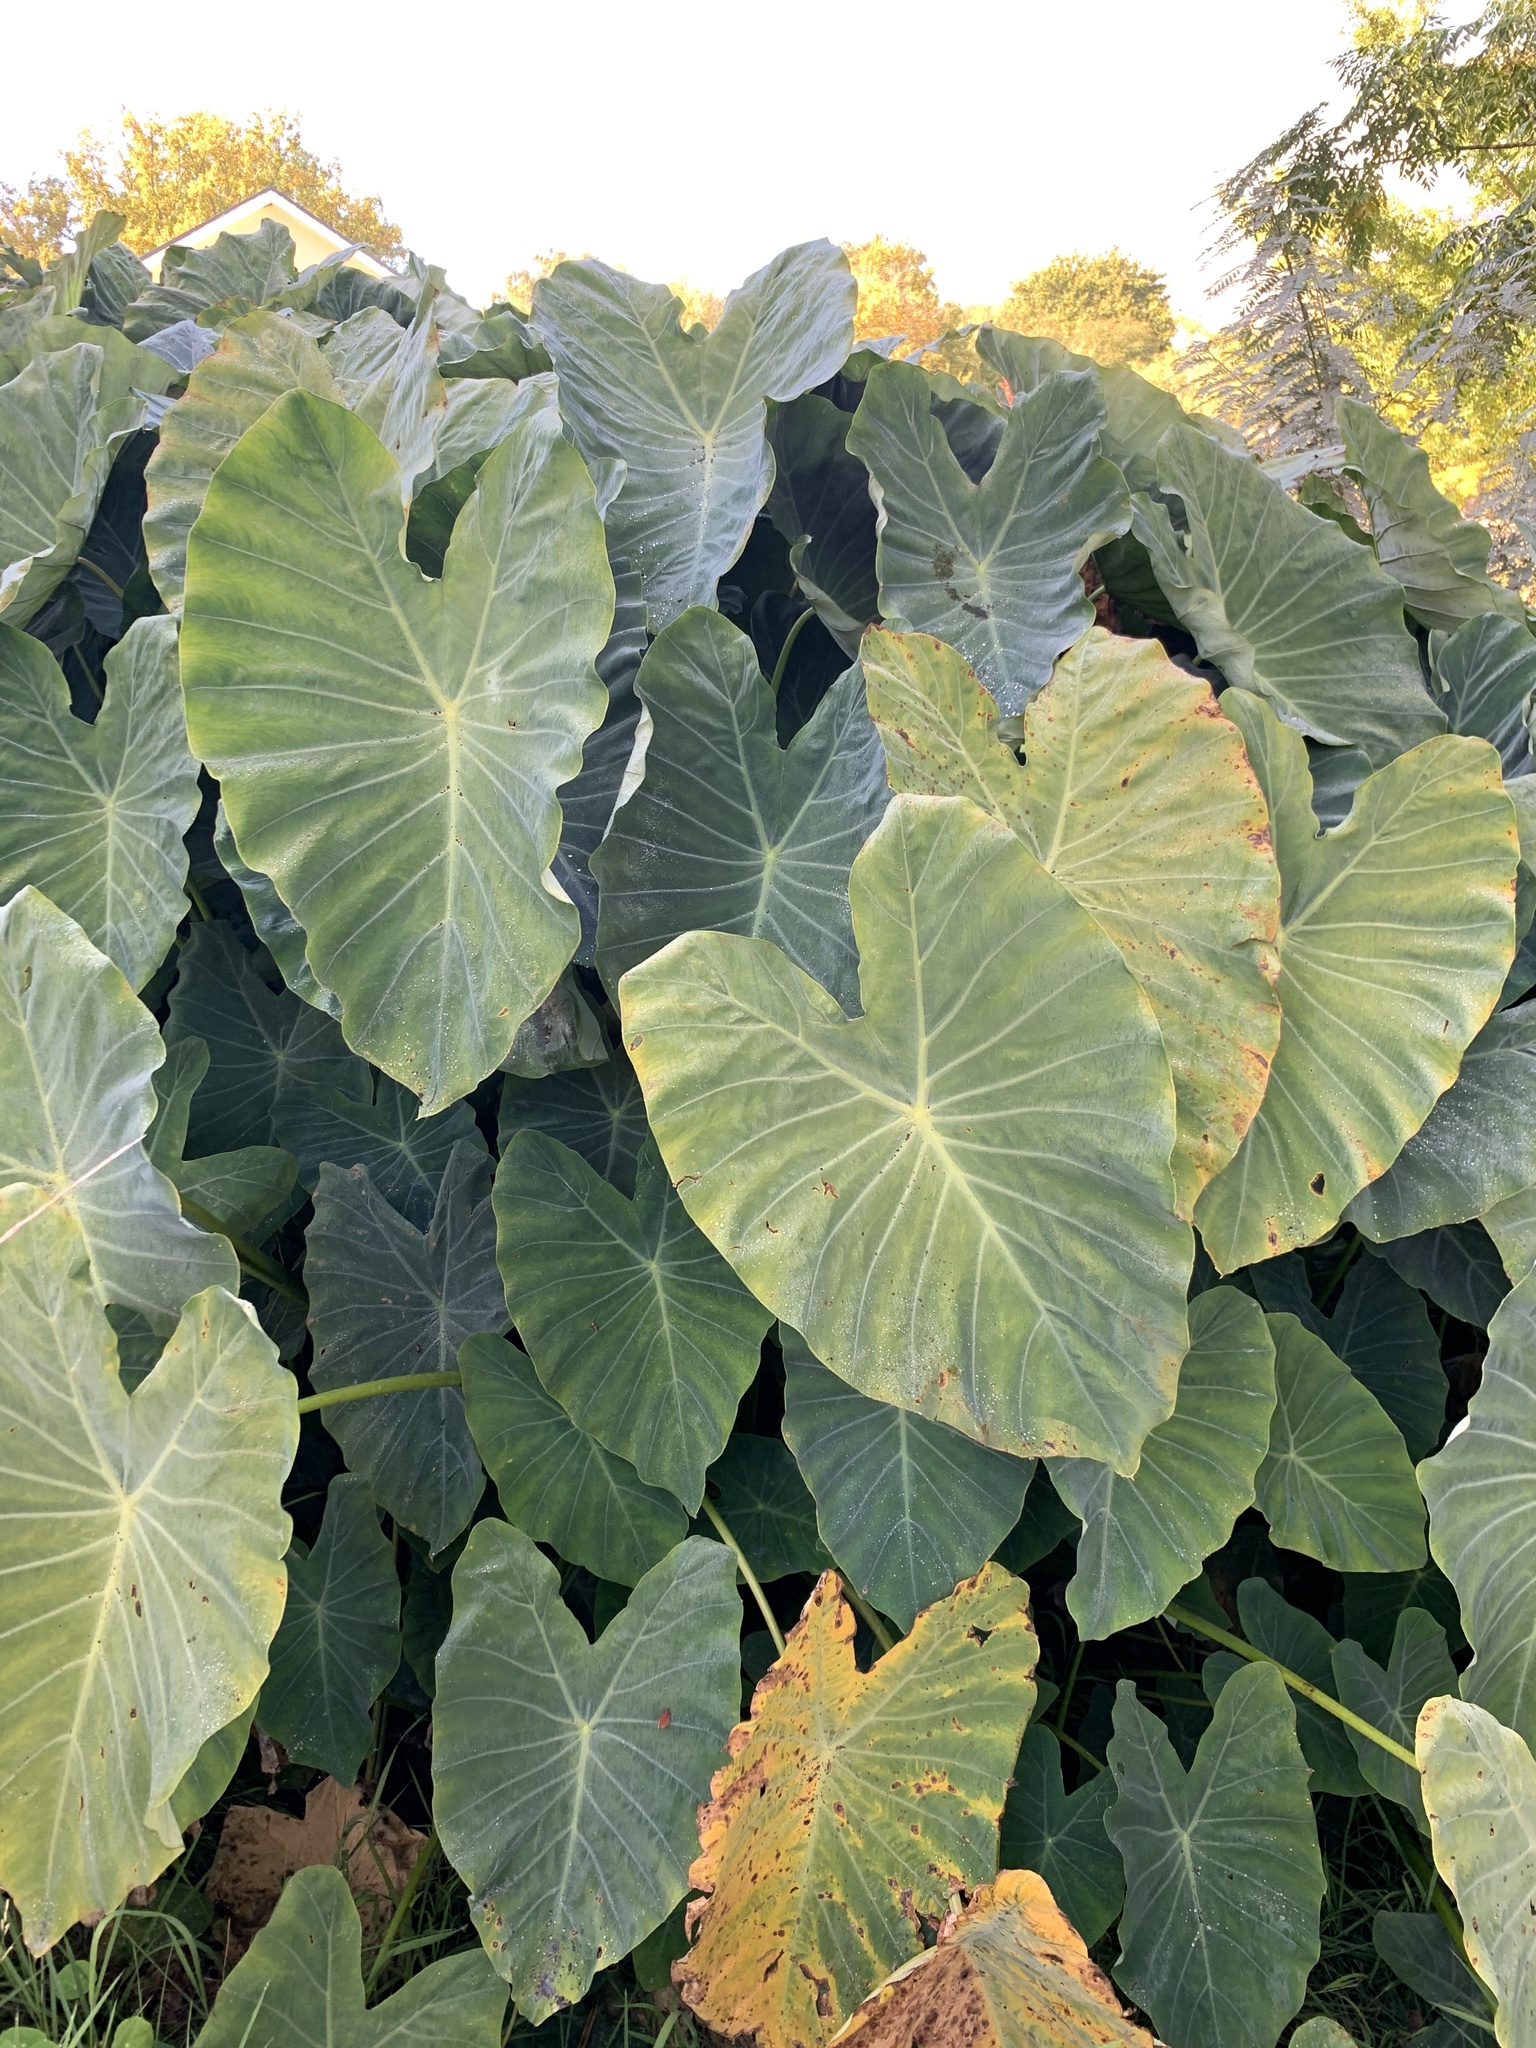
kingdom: Plantae
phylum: Tracheophyta
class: Liliopsida
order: Alismatales
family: Araceae
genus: Colocasia
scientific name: Colocasia esculenta
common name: Taro
